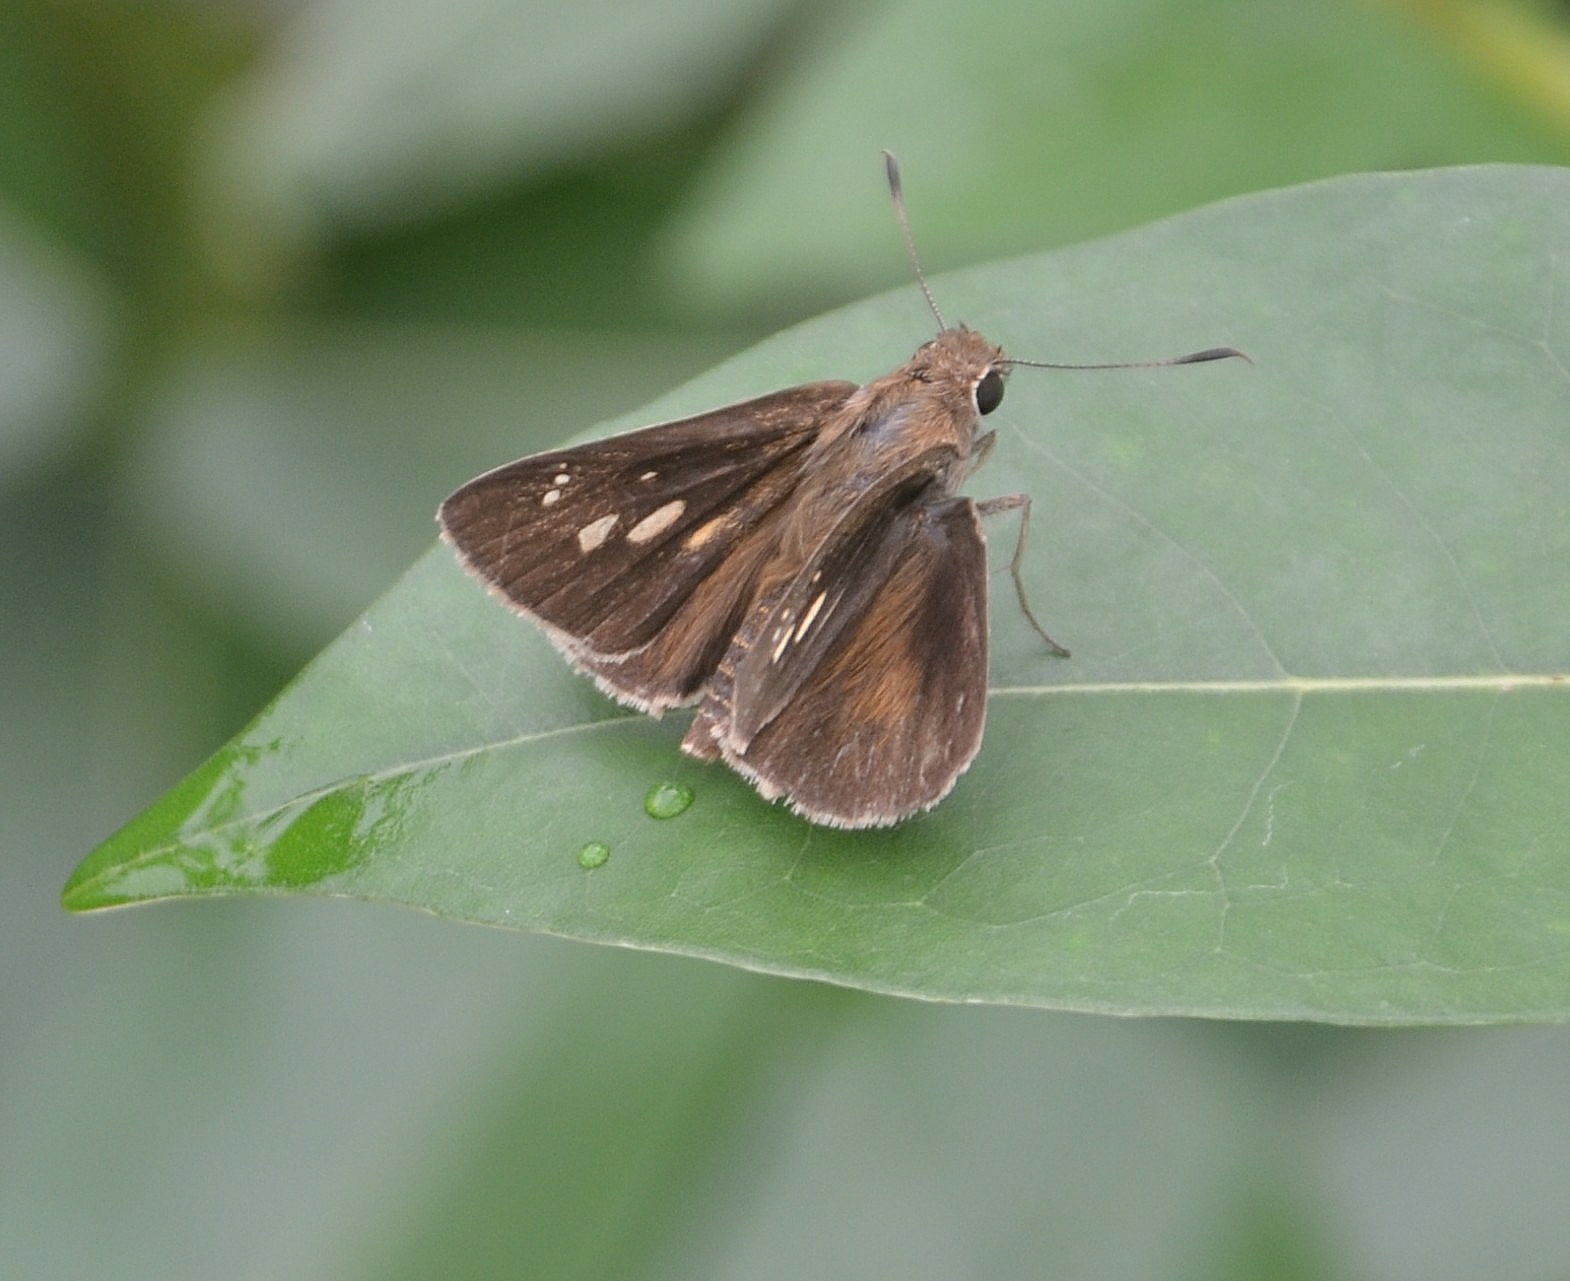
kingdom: Animalia
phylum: Arthropoda
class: Insecta
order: Lepidoptera
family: Hesperiidae
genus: Suastus
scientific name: Suastus gremius
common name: Indian palm bob
